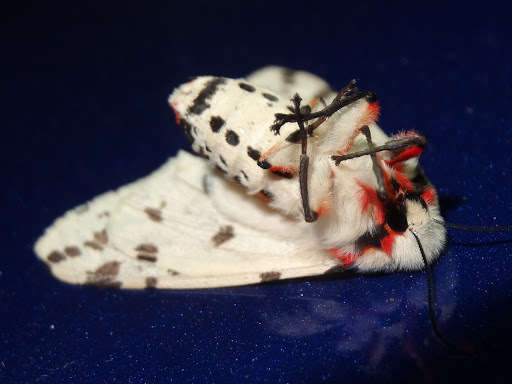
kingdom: Animalia
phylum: Arthropoda
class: Insecta
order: Lepidoptera
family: Erebidae
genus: Ardices
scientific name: Ardices canescens
